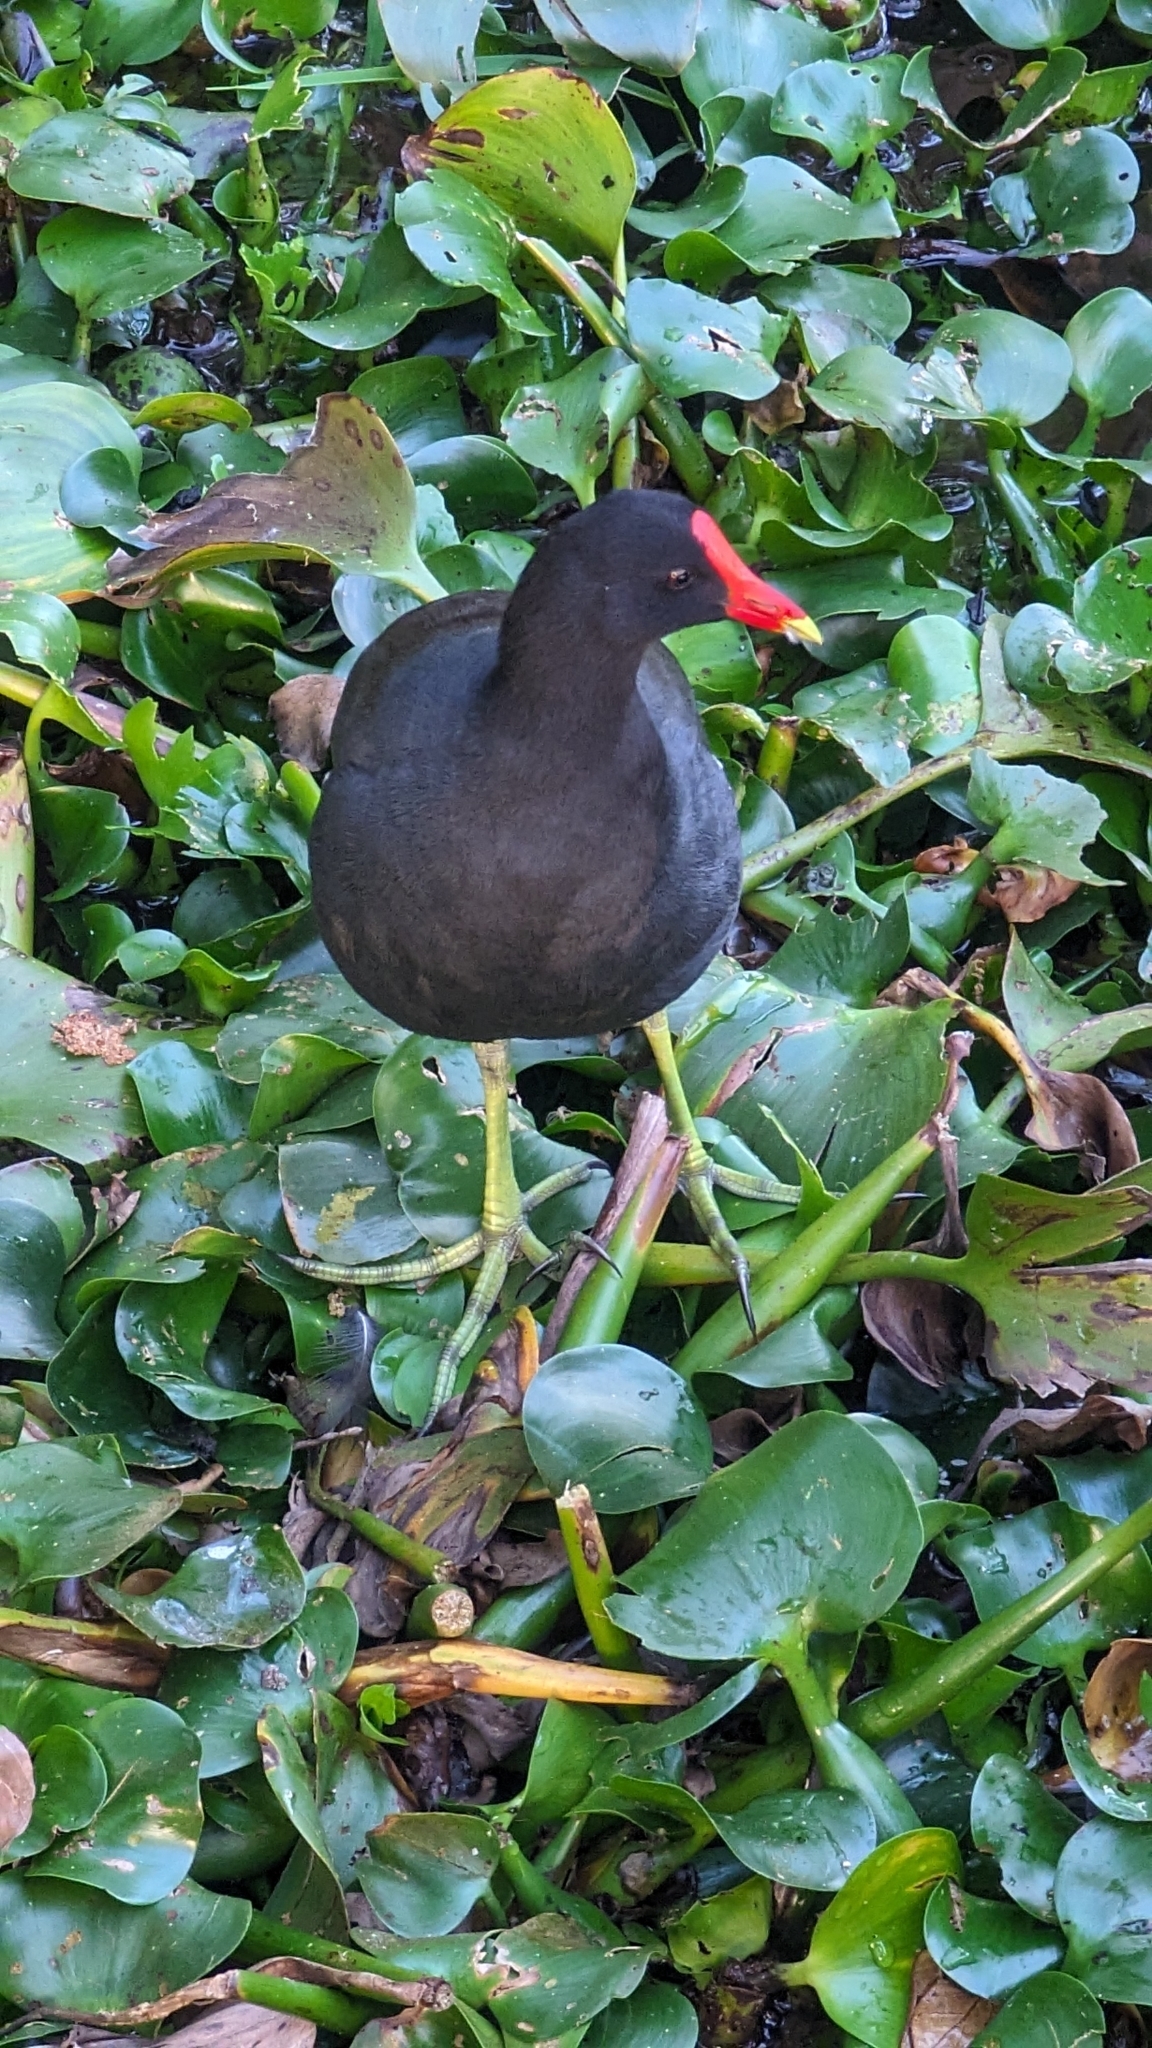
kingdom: Animalia
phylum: Chordata
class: Aves
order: Gruiformes
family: Rallidae
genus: Gallinula
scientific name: Gallinula chloropus
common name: Common moorhen
